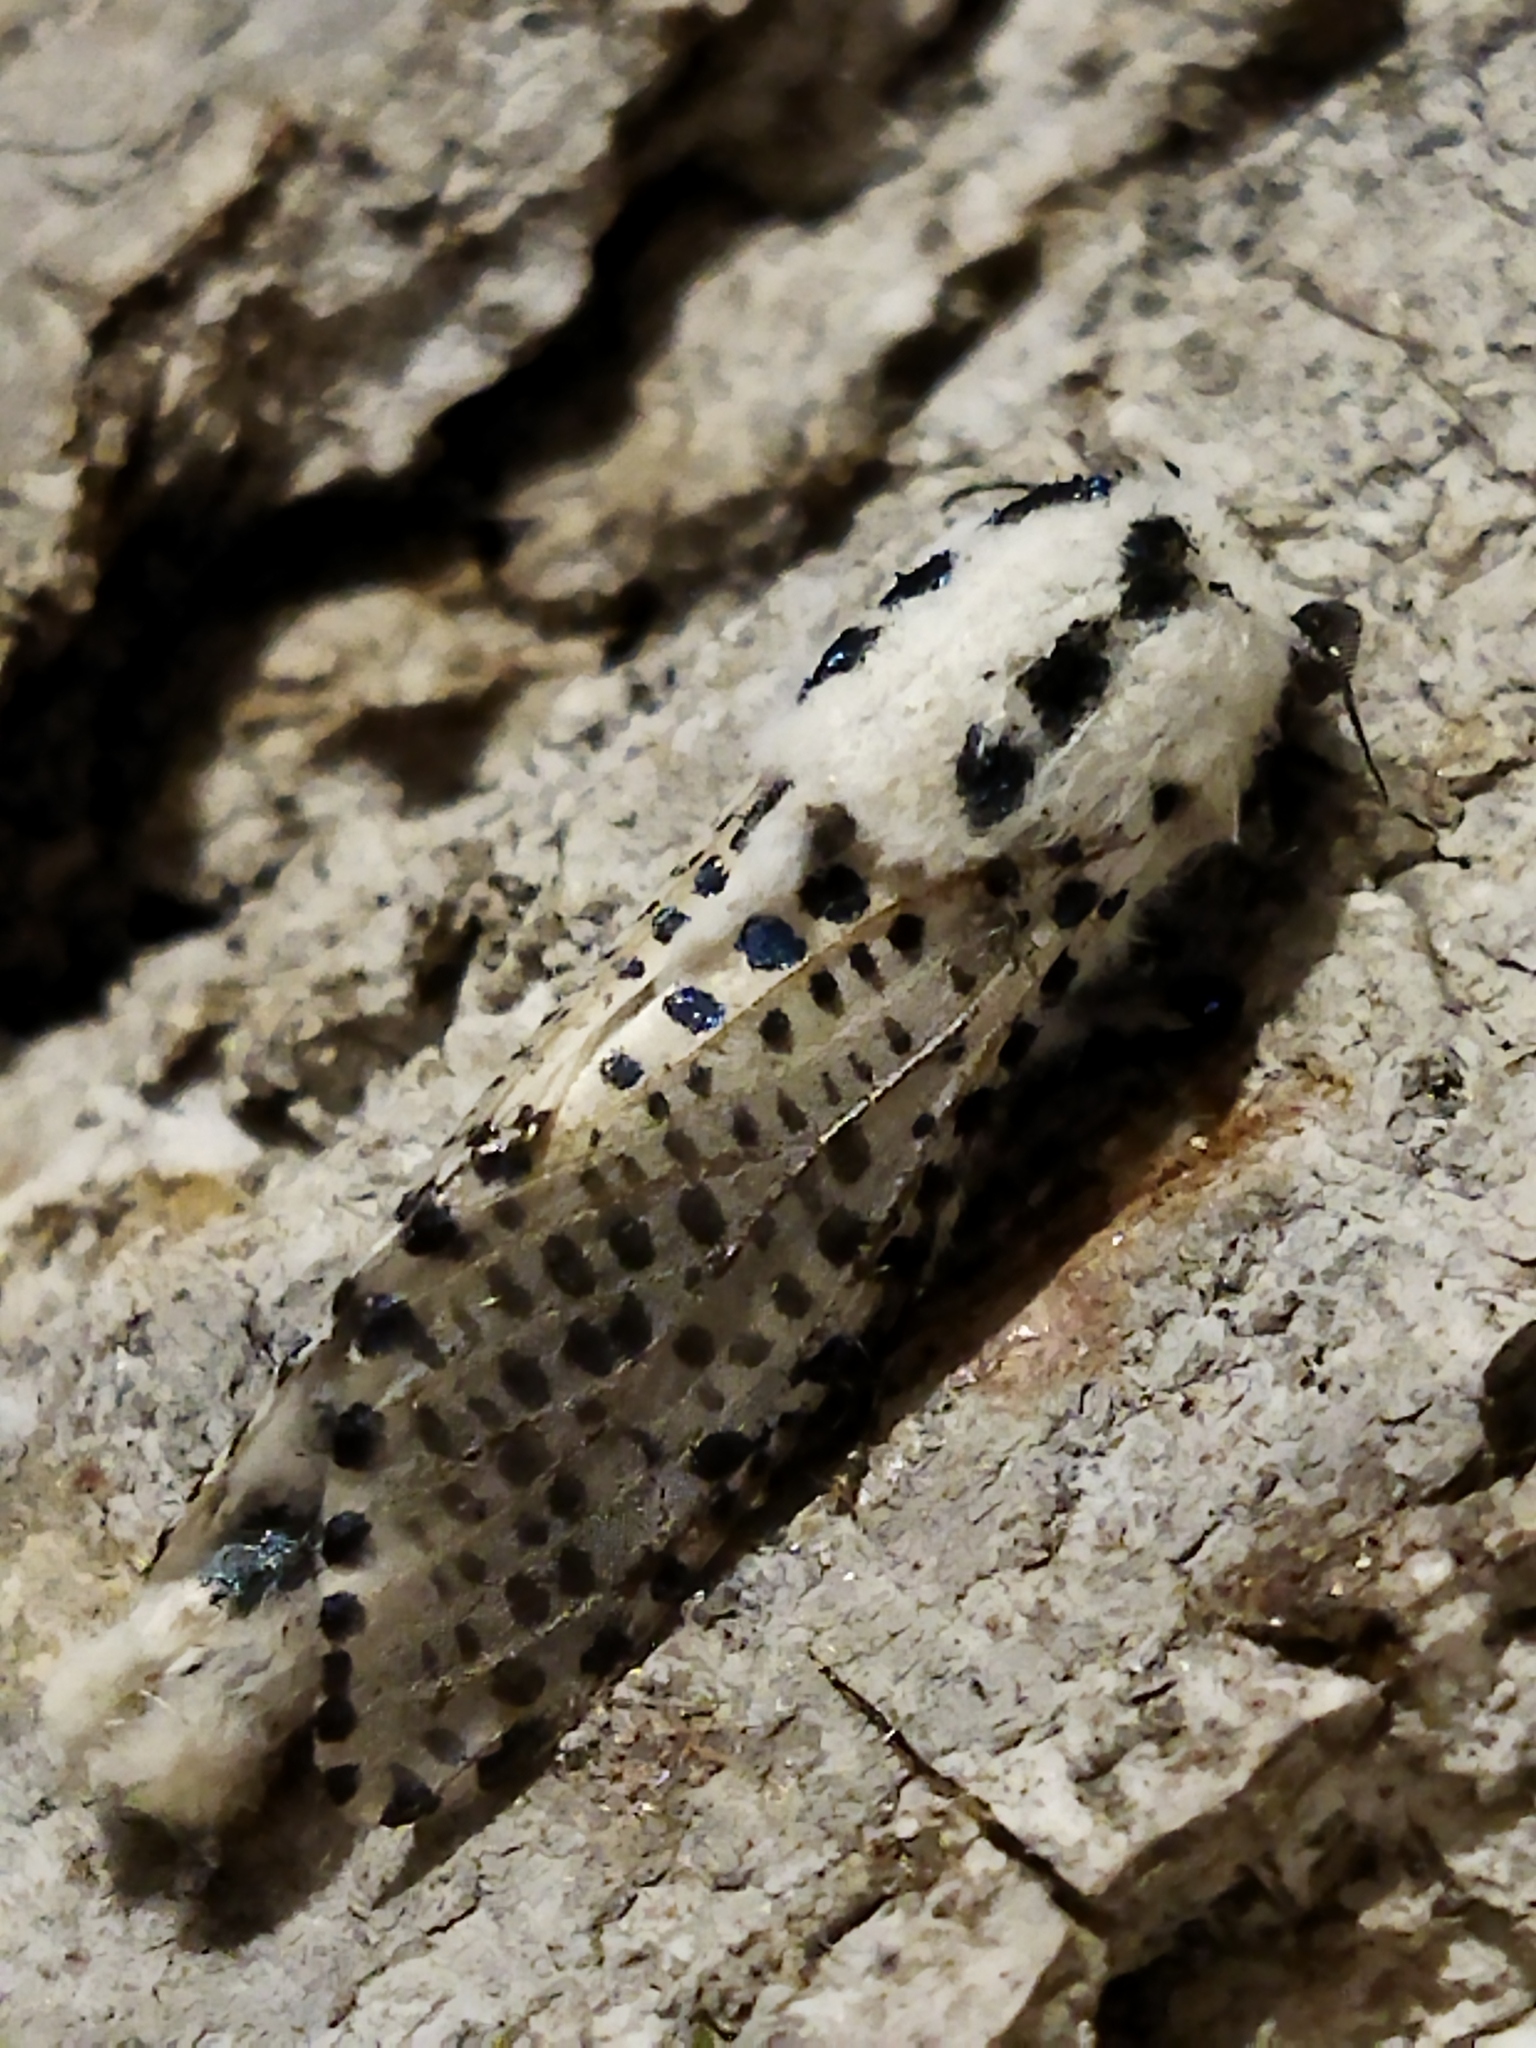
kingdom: Animalia
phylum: Arthropoda
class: Insecta
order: Lepidoptera
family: Cossidae
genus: Zeuzera
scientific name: Zeuzera pyrina
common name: Leopard moth
